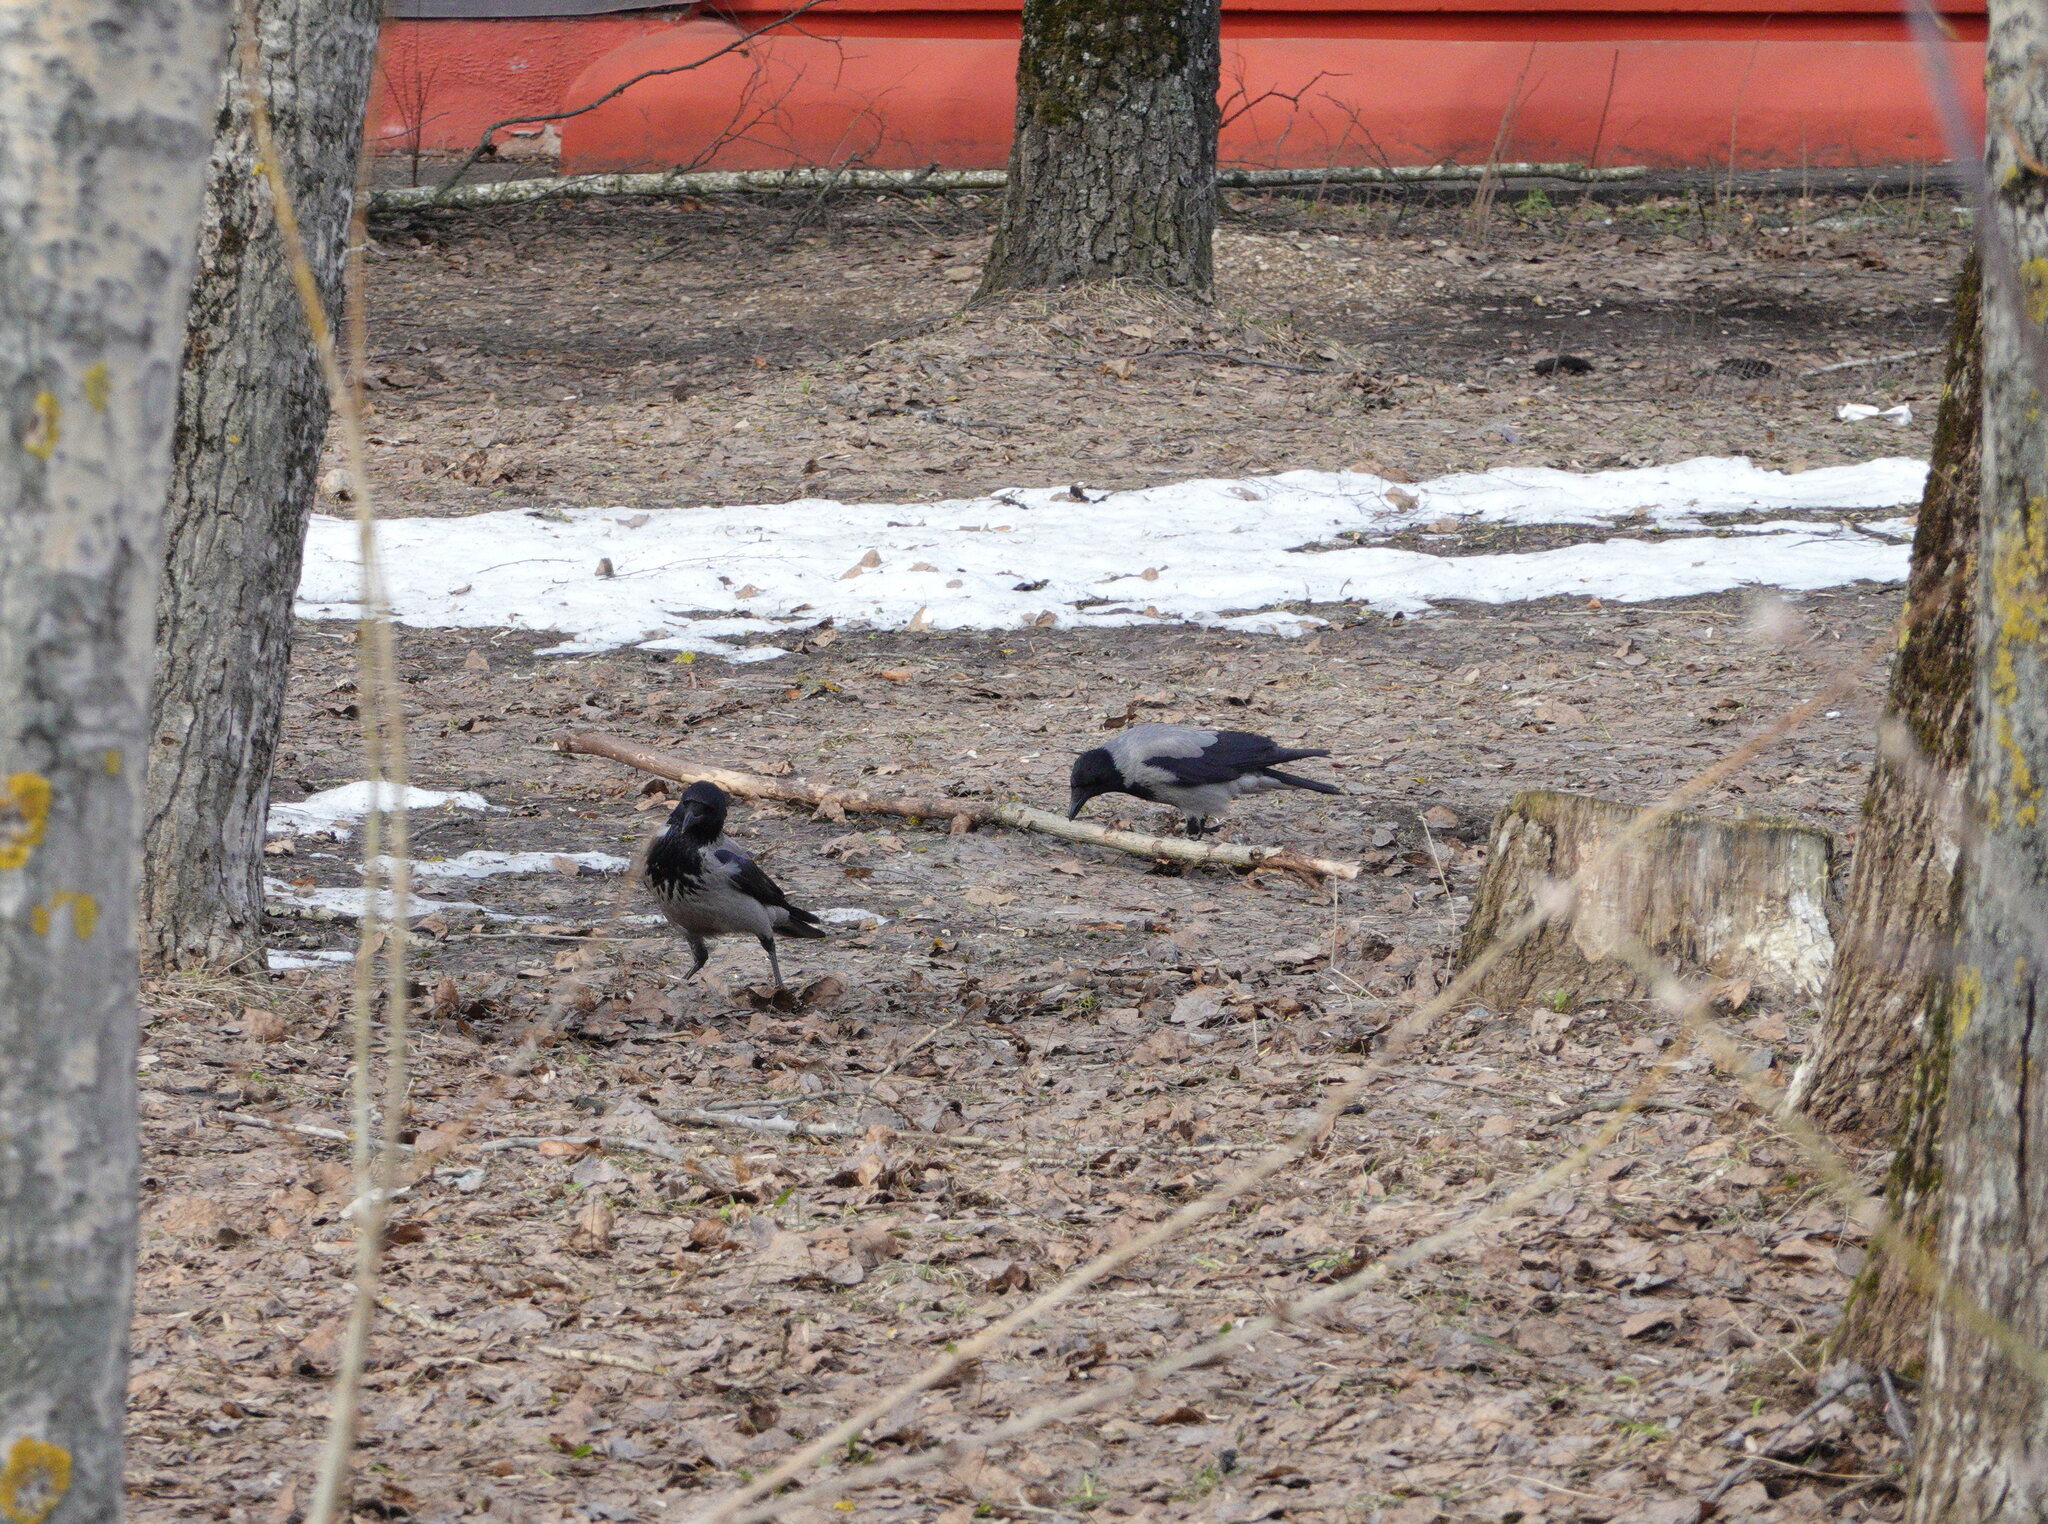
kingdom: Animalia
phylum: Chordata
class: Aves
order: Passeriformes
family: Corvidae
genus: Corvus
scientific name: Corvus cornix
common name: Hooded crow
